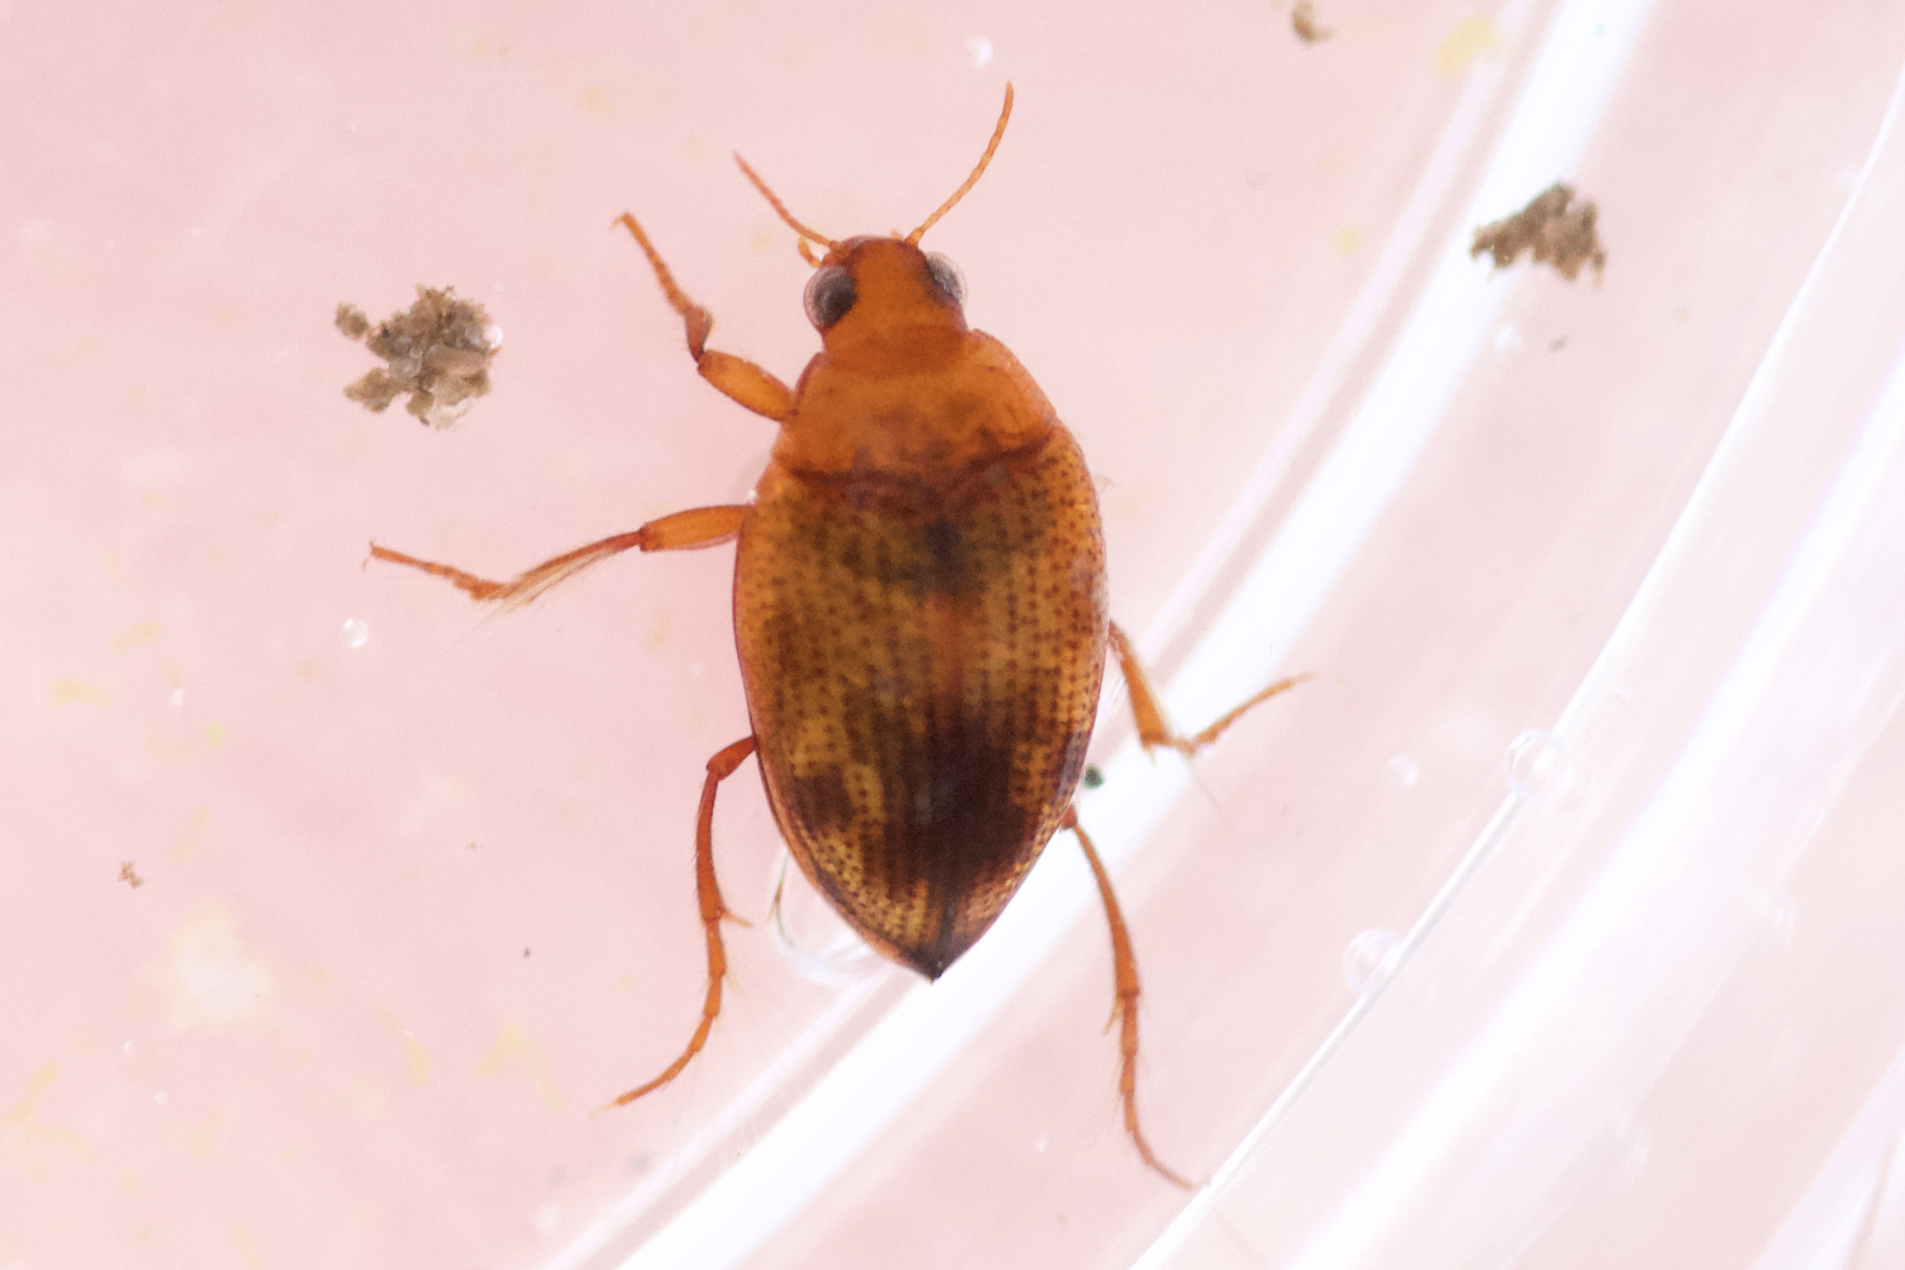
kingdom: Animalia
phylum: Arthropoda
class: Insecta
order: Coleoptera
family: Haliplidae
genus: Haliplus
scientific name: Haliplus longulus
